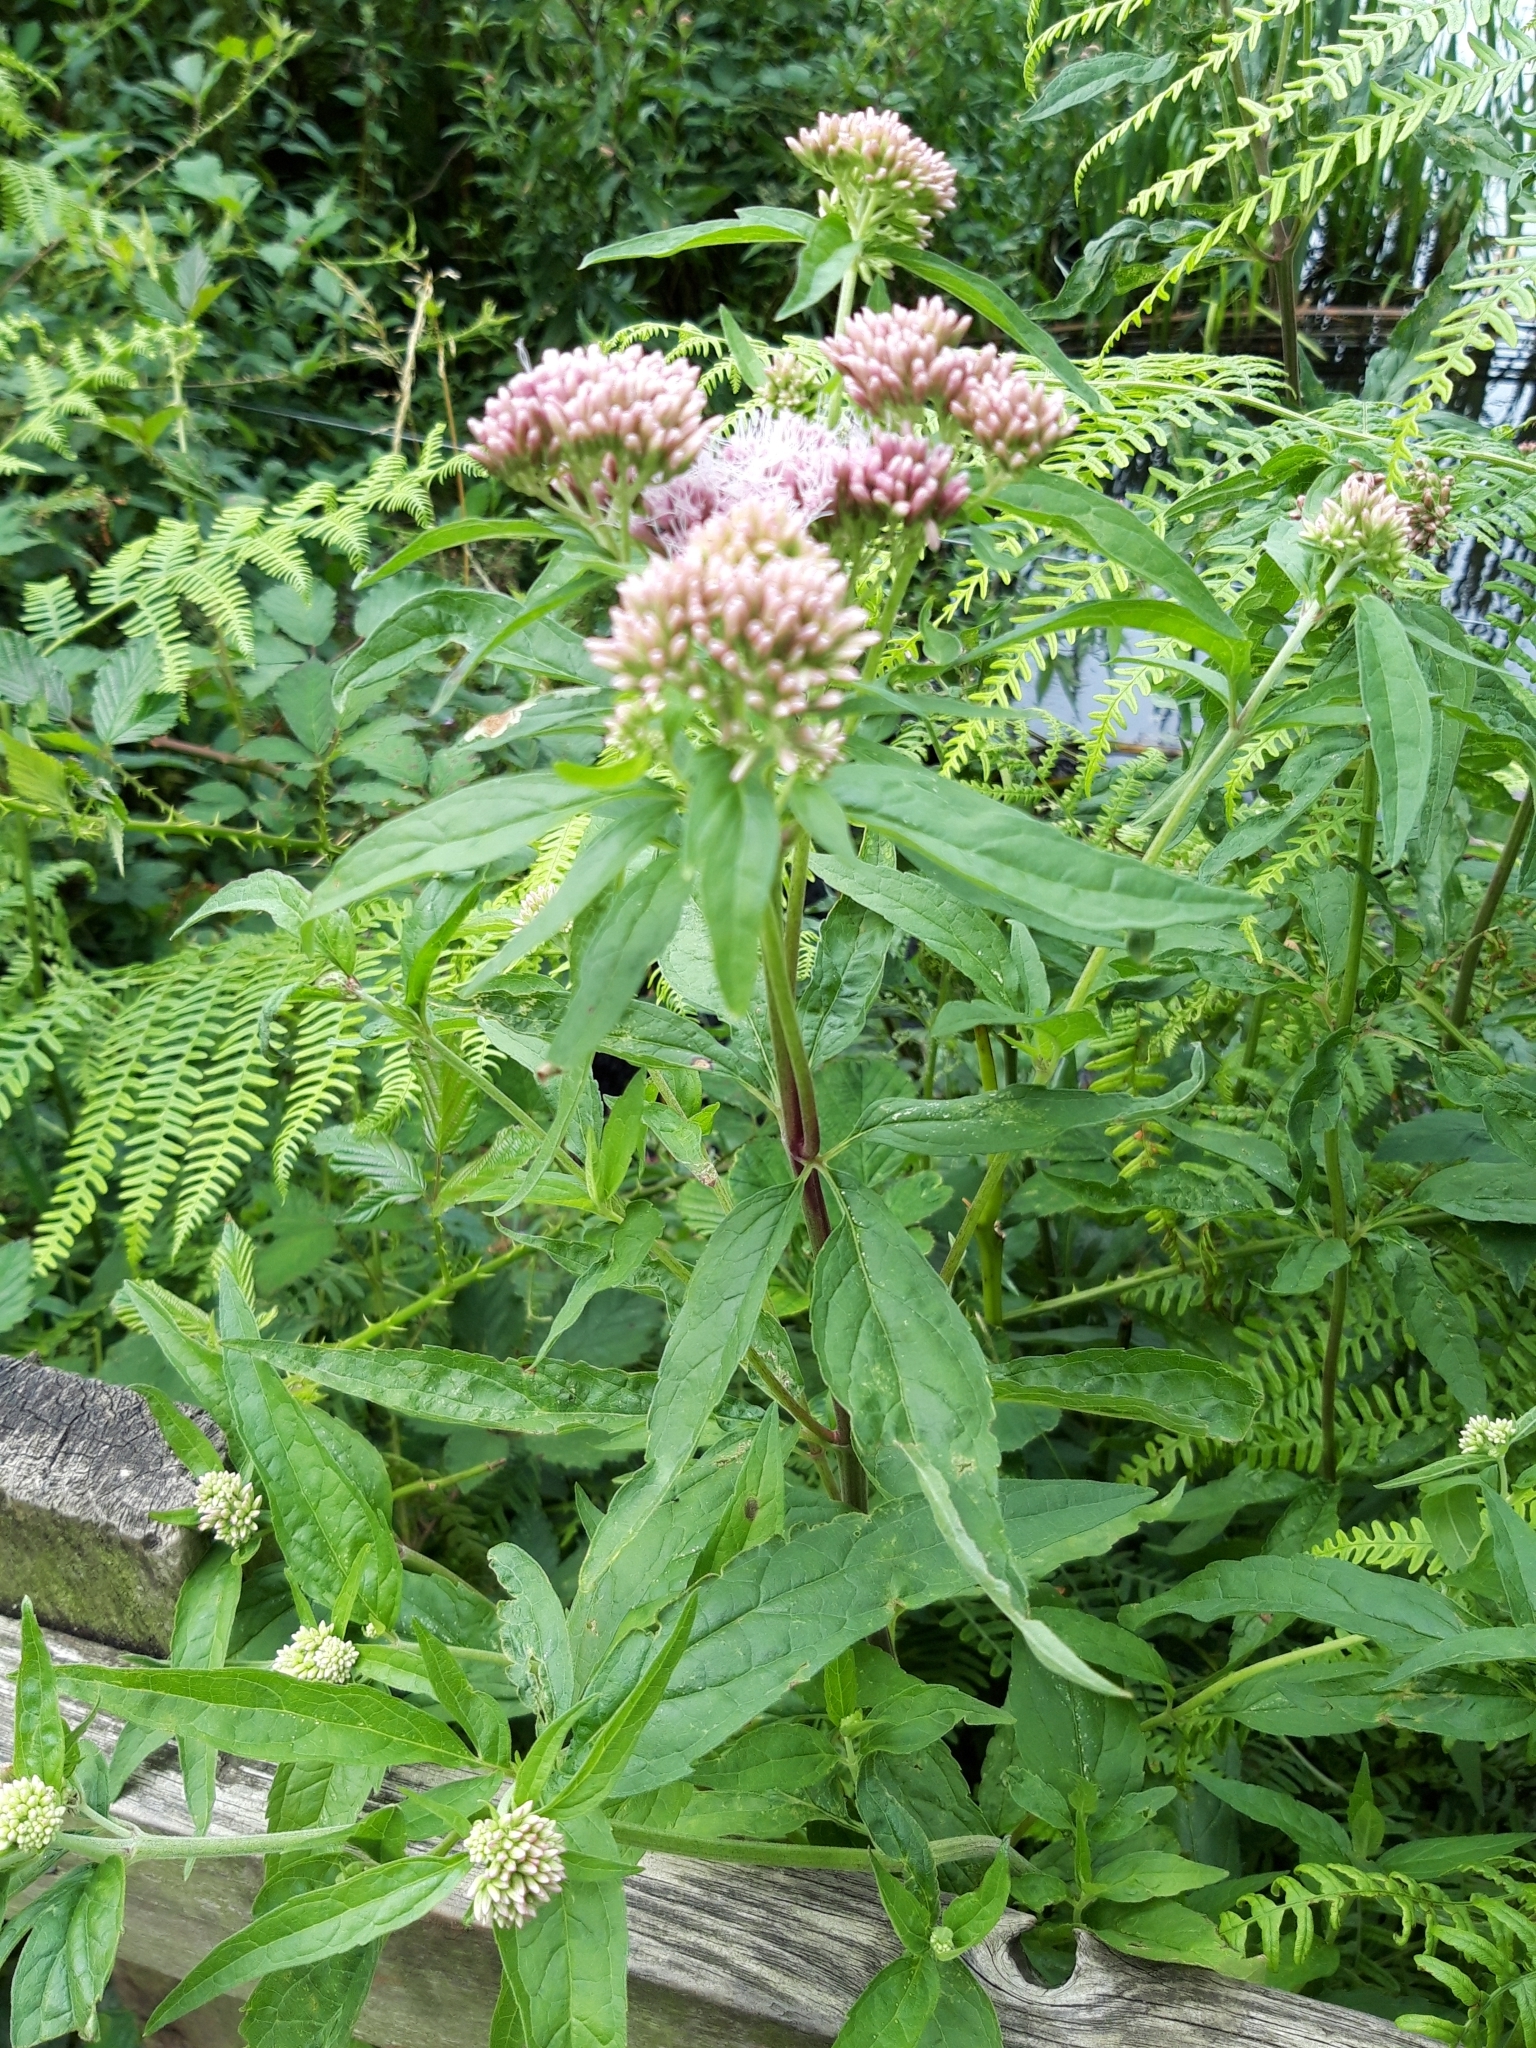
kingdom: Plantae
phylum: Tracheophyta
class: Magnoliopsida
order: Asterales
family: Asteraceae
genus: Eupatorium
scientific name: Eupatorium cannabinum
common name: Hemp-agrimony
